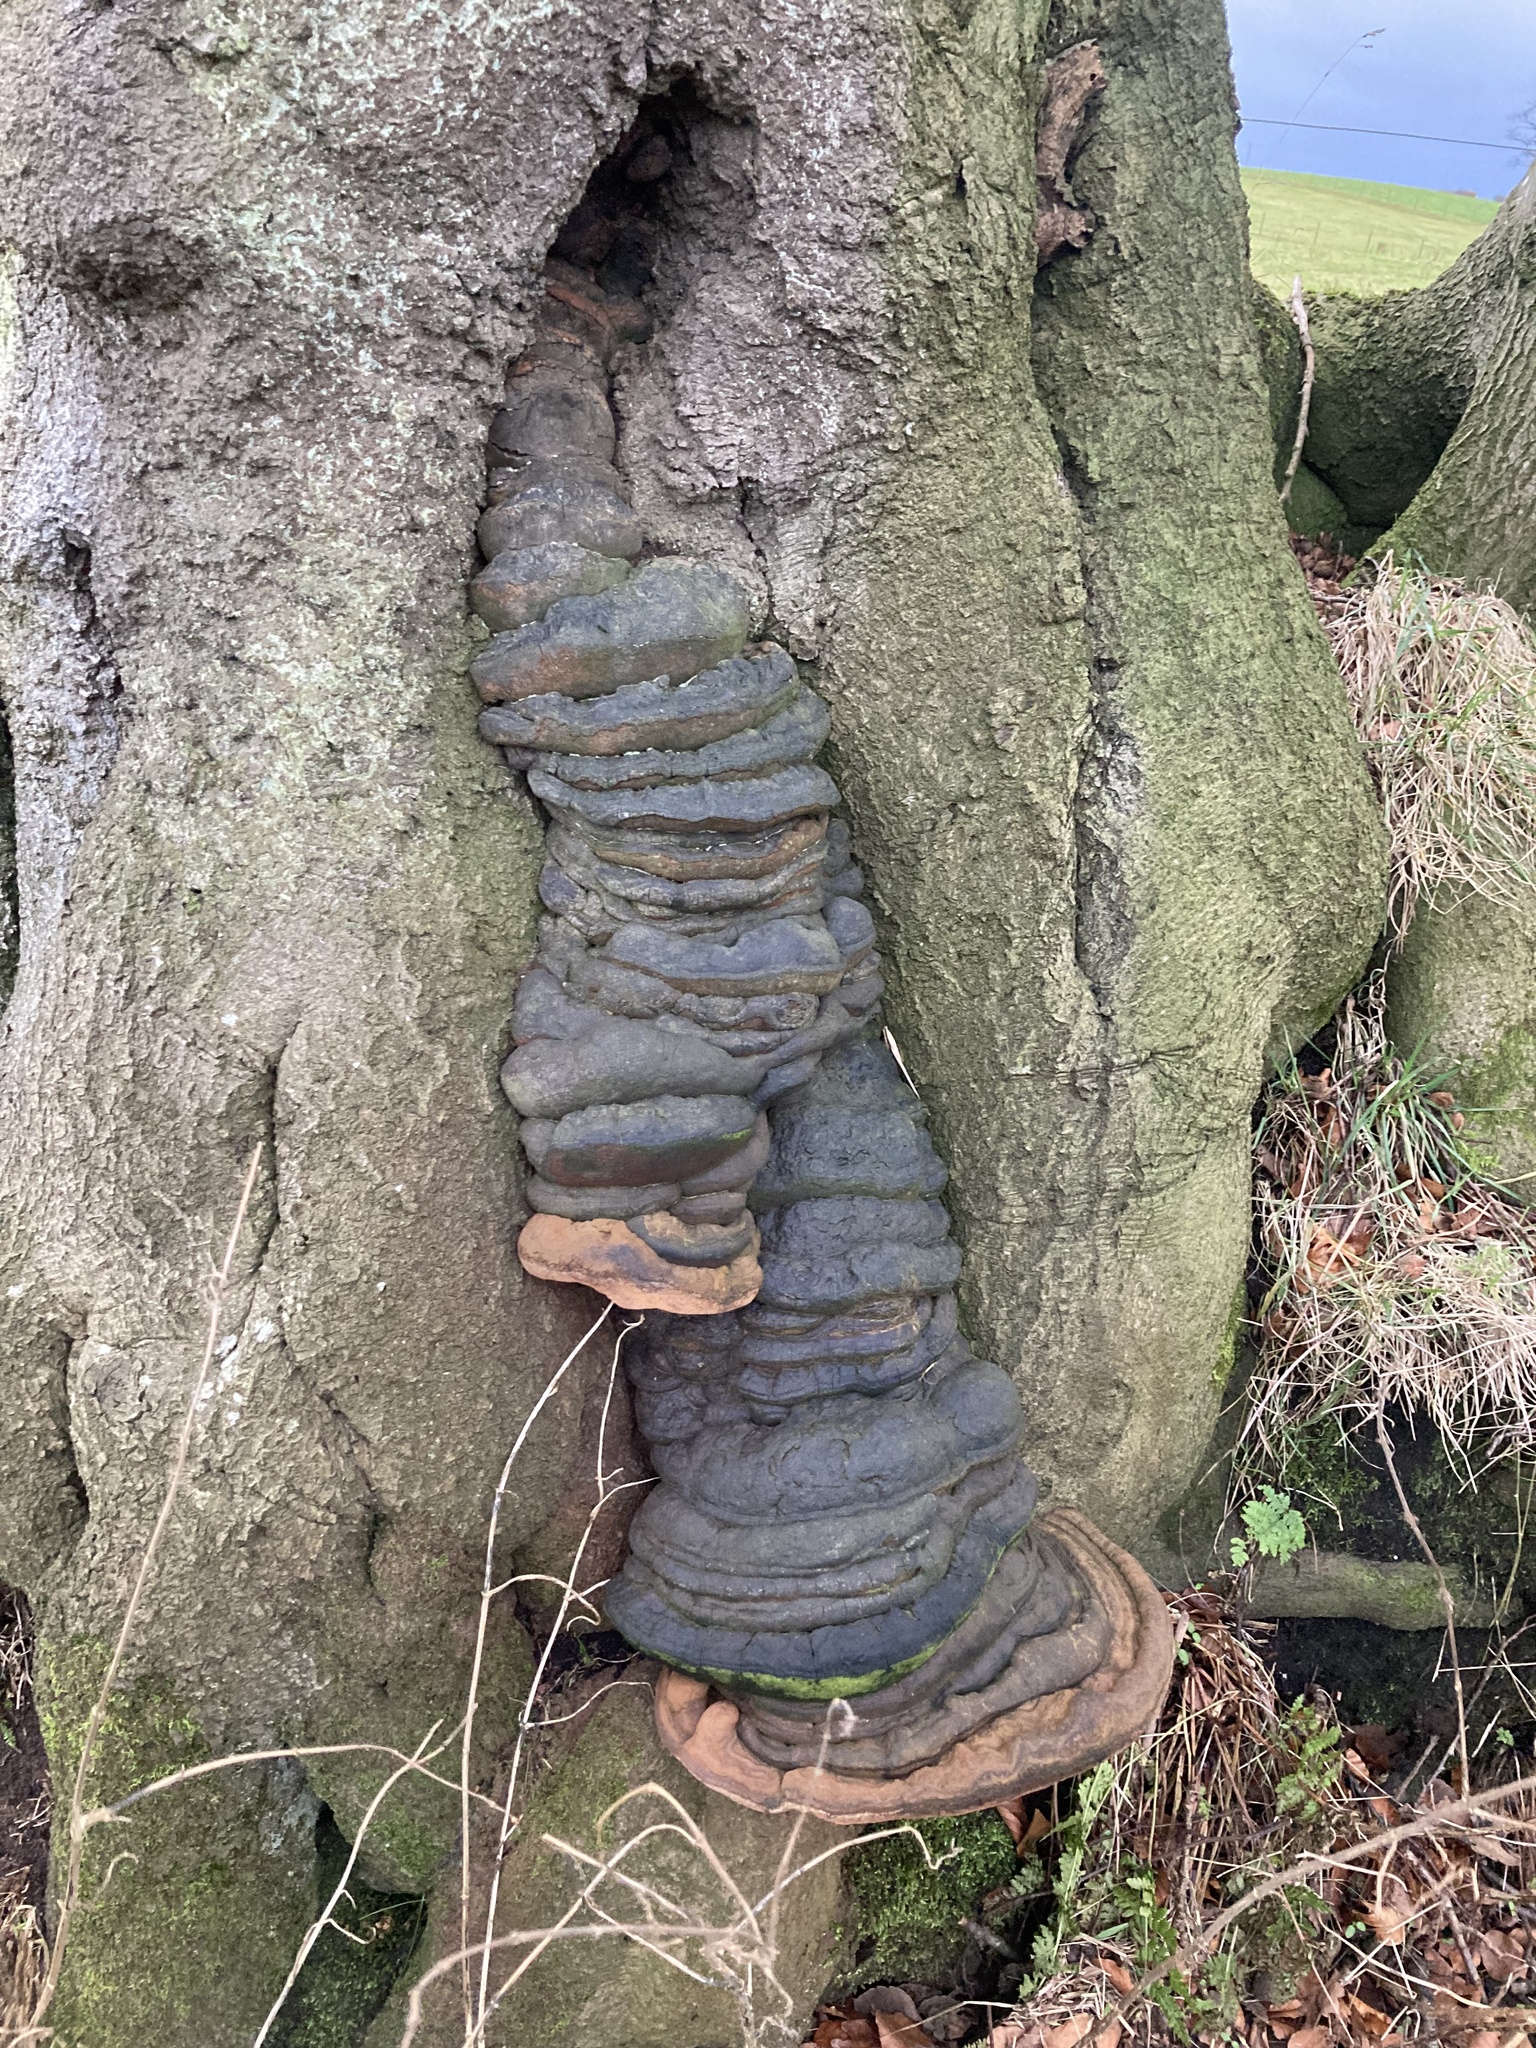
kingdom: Fungi
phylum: Basidiomycota
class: Agaricomycetes
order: Polyporales
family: Polyporaceae
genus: Fomes
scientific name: Fomes fomentarius
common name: Hoof fungus
